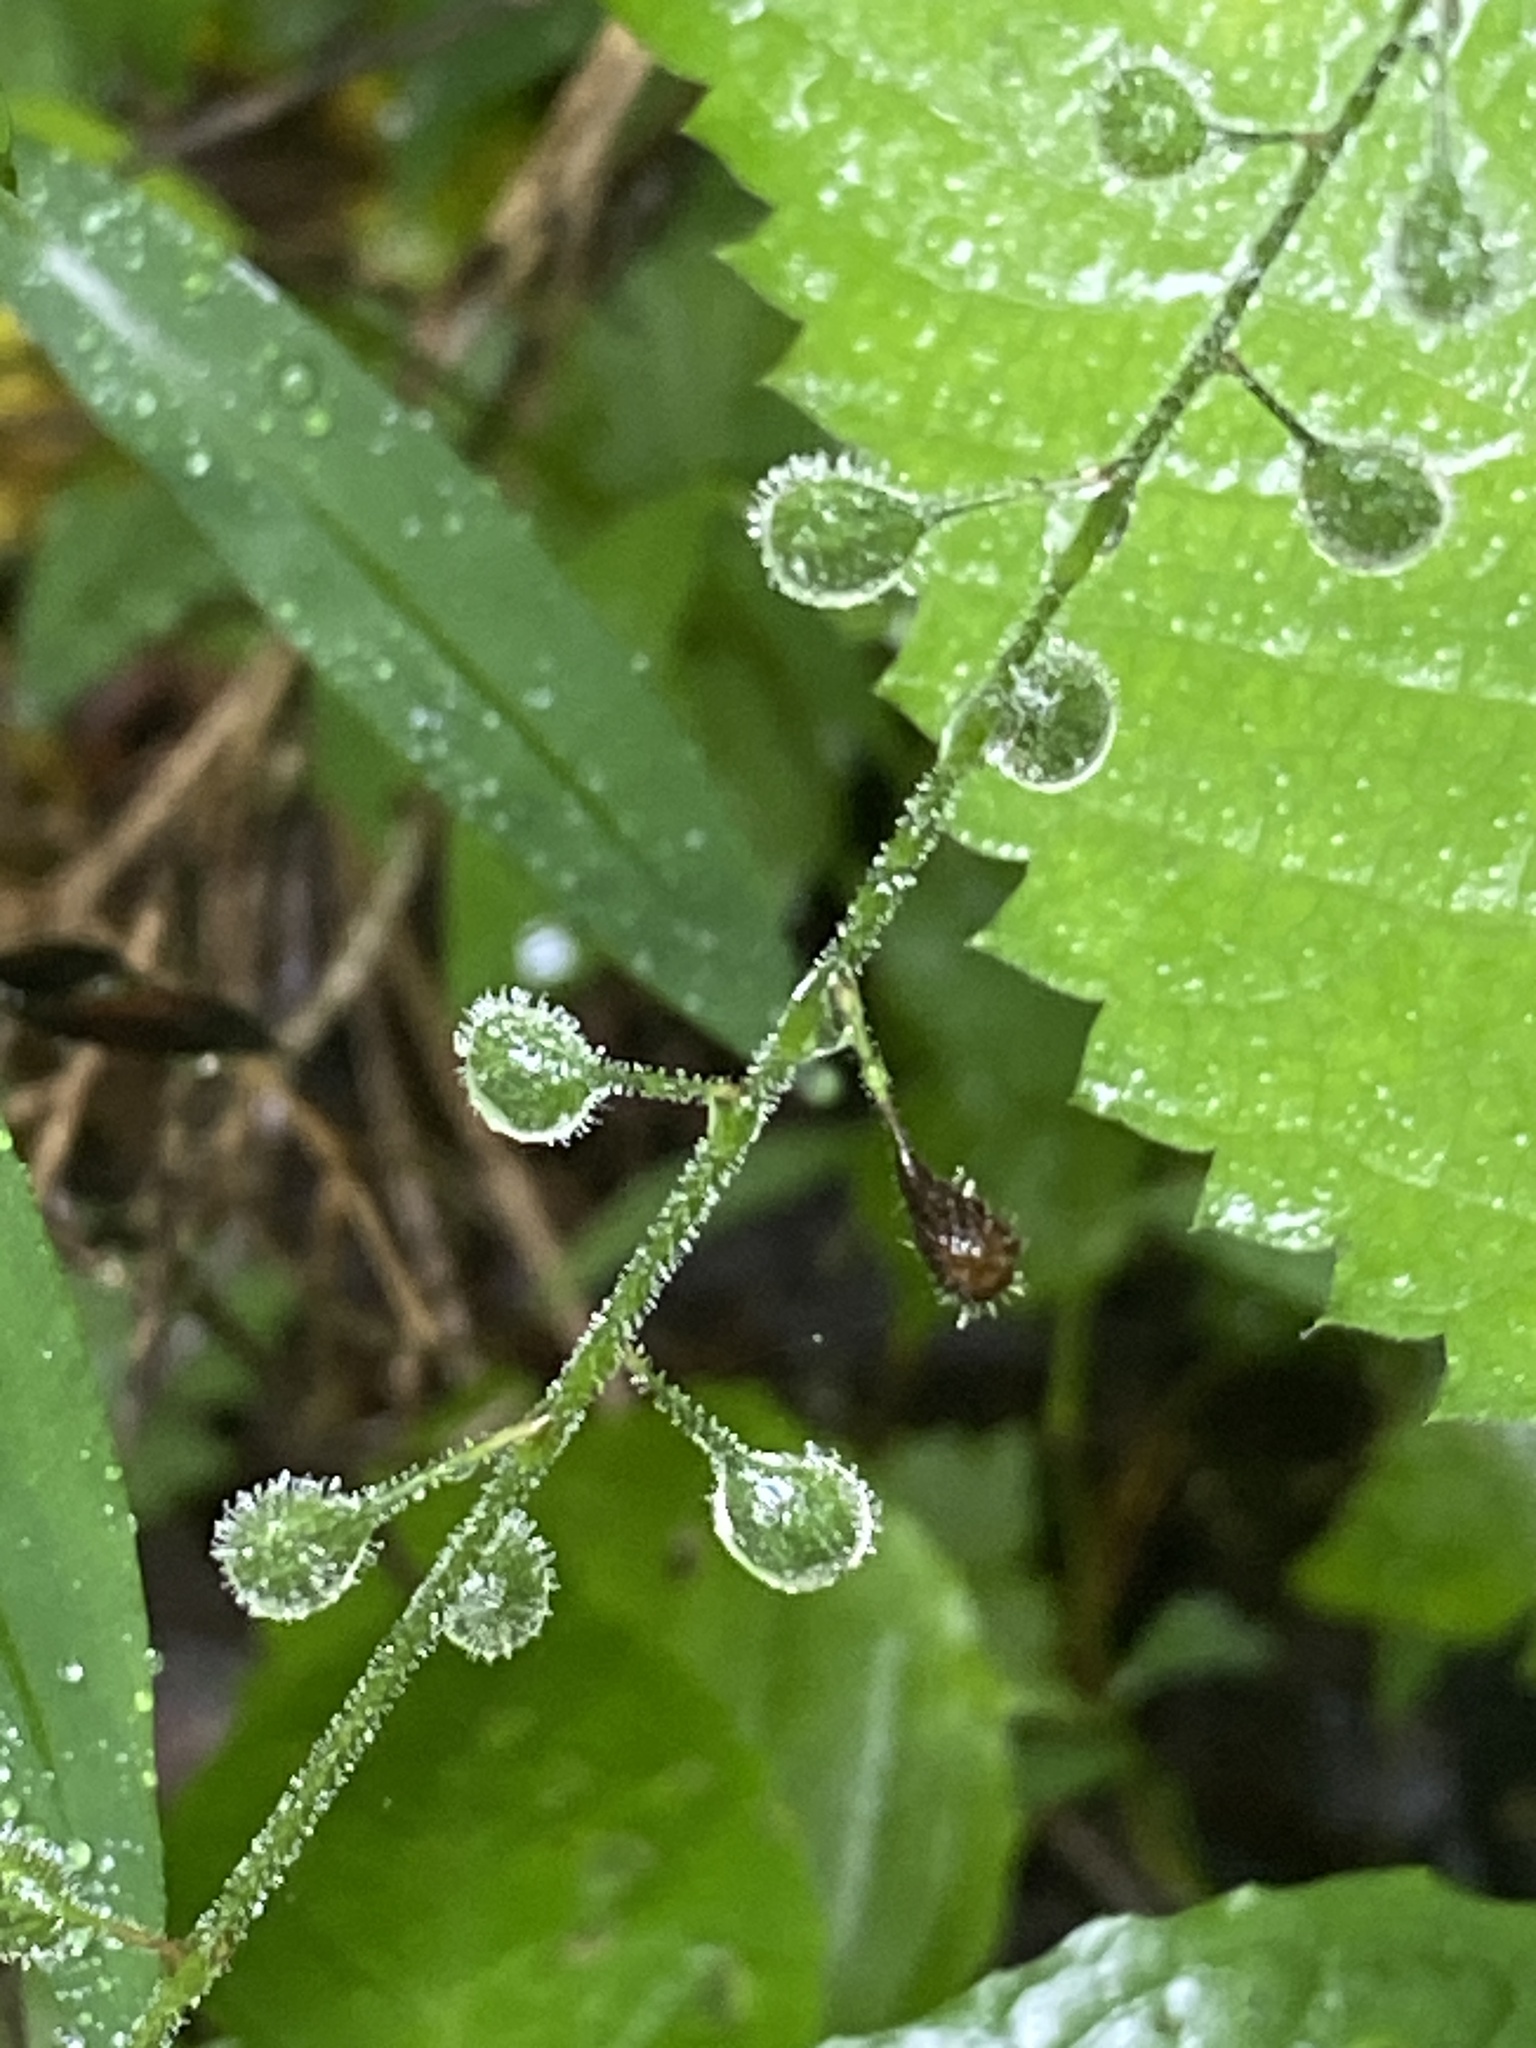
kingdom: Plantae
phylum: Tracheophyta
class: Magnoliopsida
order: Myrtales
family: Onagraceae
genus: Circaea
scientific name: Circaea canadensis
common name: Broad-leaved enchanter's nightshade
